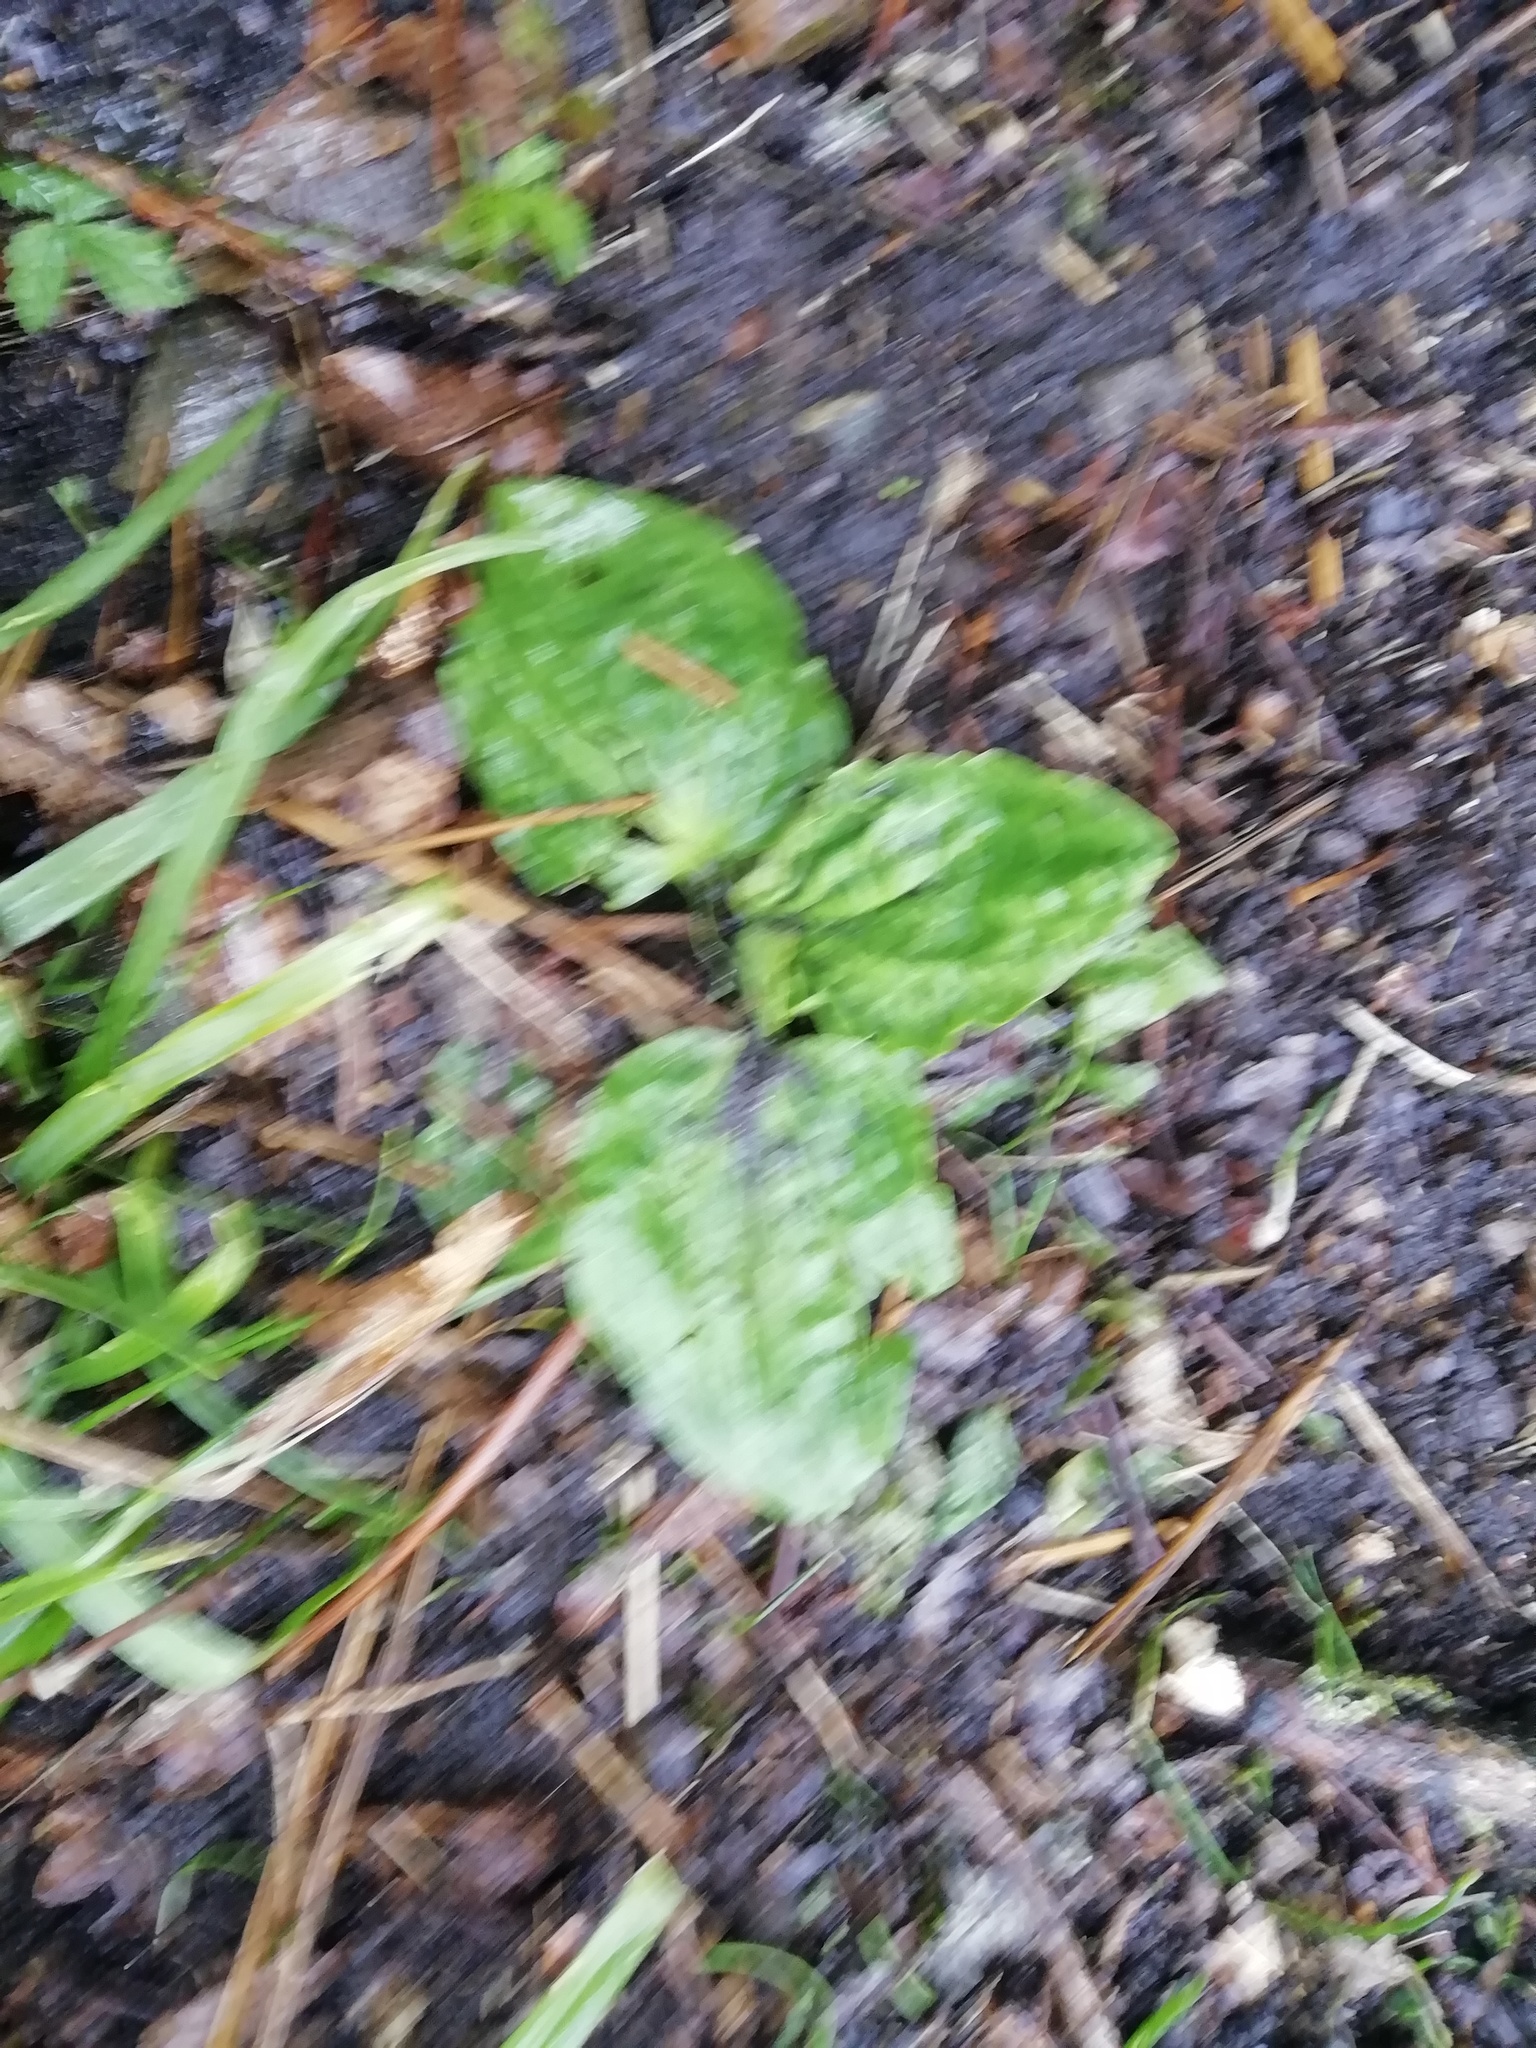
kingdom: Plantae
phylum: Tracheophyta
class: Magnoliopsida
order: Lamiales
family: Plantaginaceae
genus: Plantago
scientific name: Plantago major
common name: Common plantain
